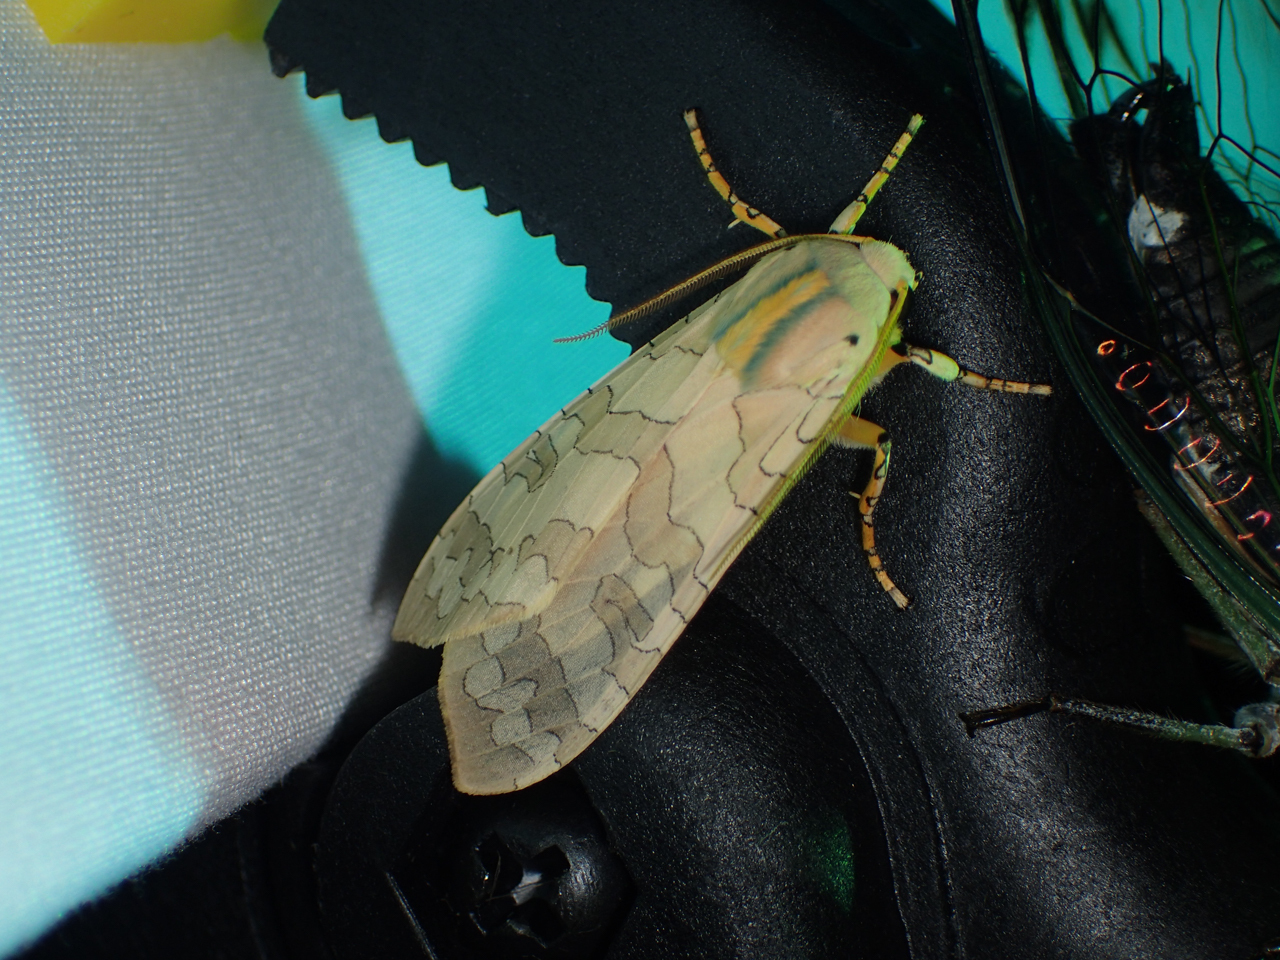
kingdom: Animalia
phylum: Arthropoda
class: Insecta
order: Lepidoptera
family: Erebidae
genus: Halysidota
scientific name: Halysidota
